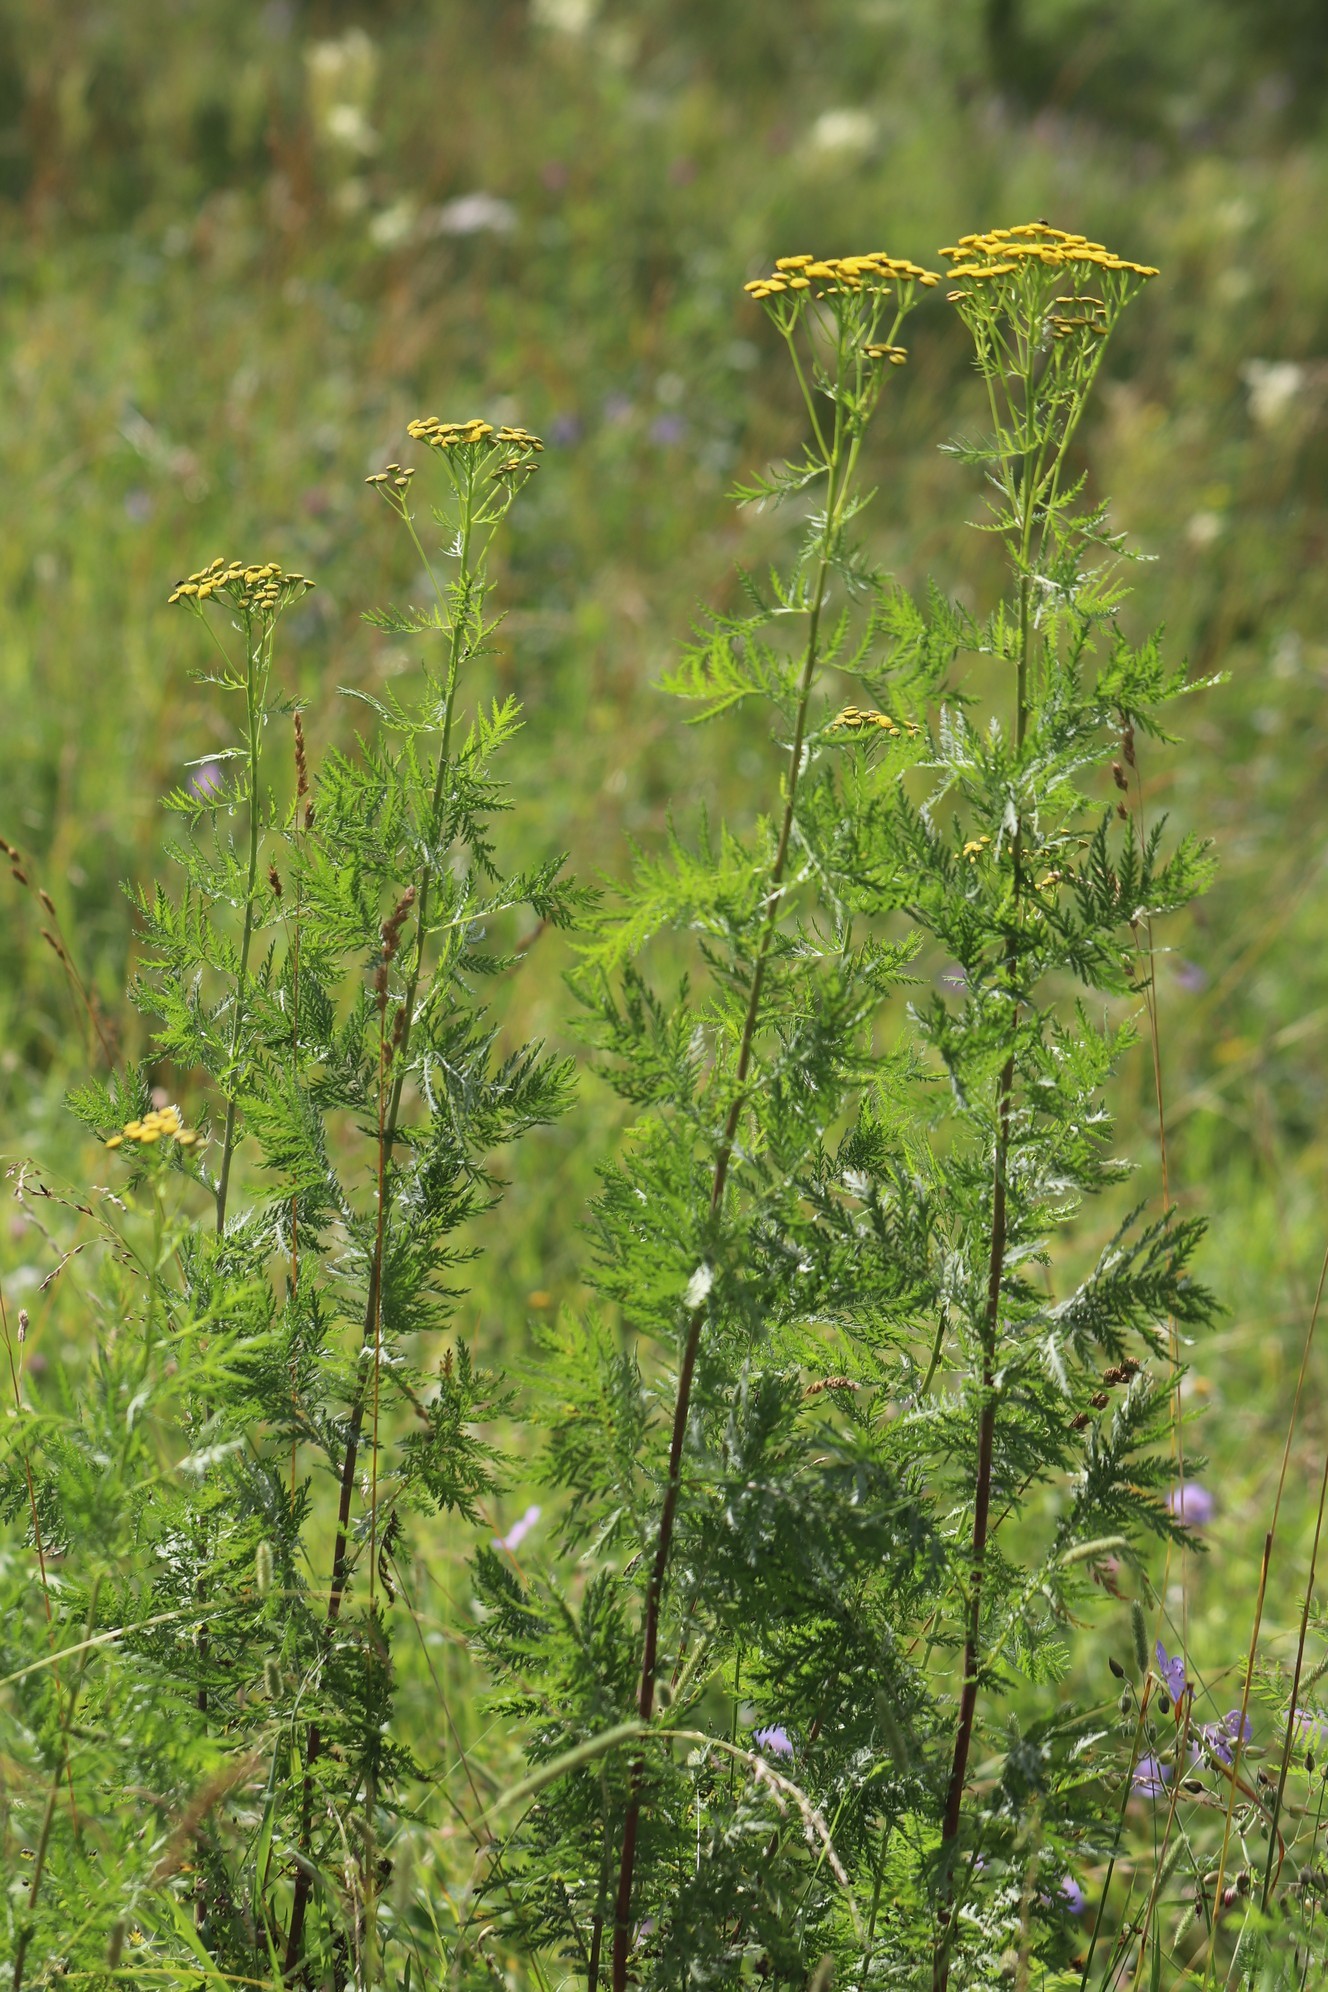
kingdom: Plantae
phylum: Tracheophyta
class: Magnoliopsida
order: Asterales
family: Asteraceae
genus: Tanacetum
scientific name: Tanacetum vulgare
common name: Common tansy
